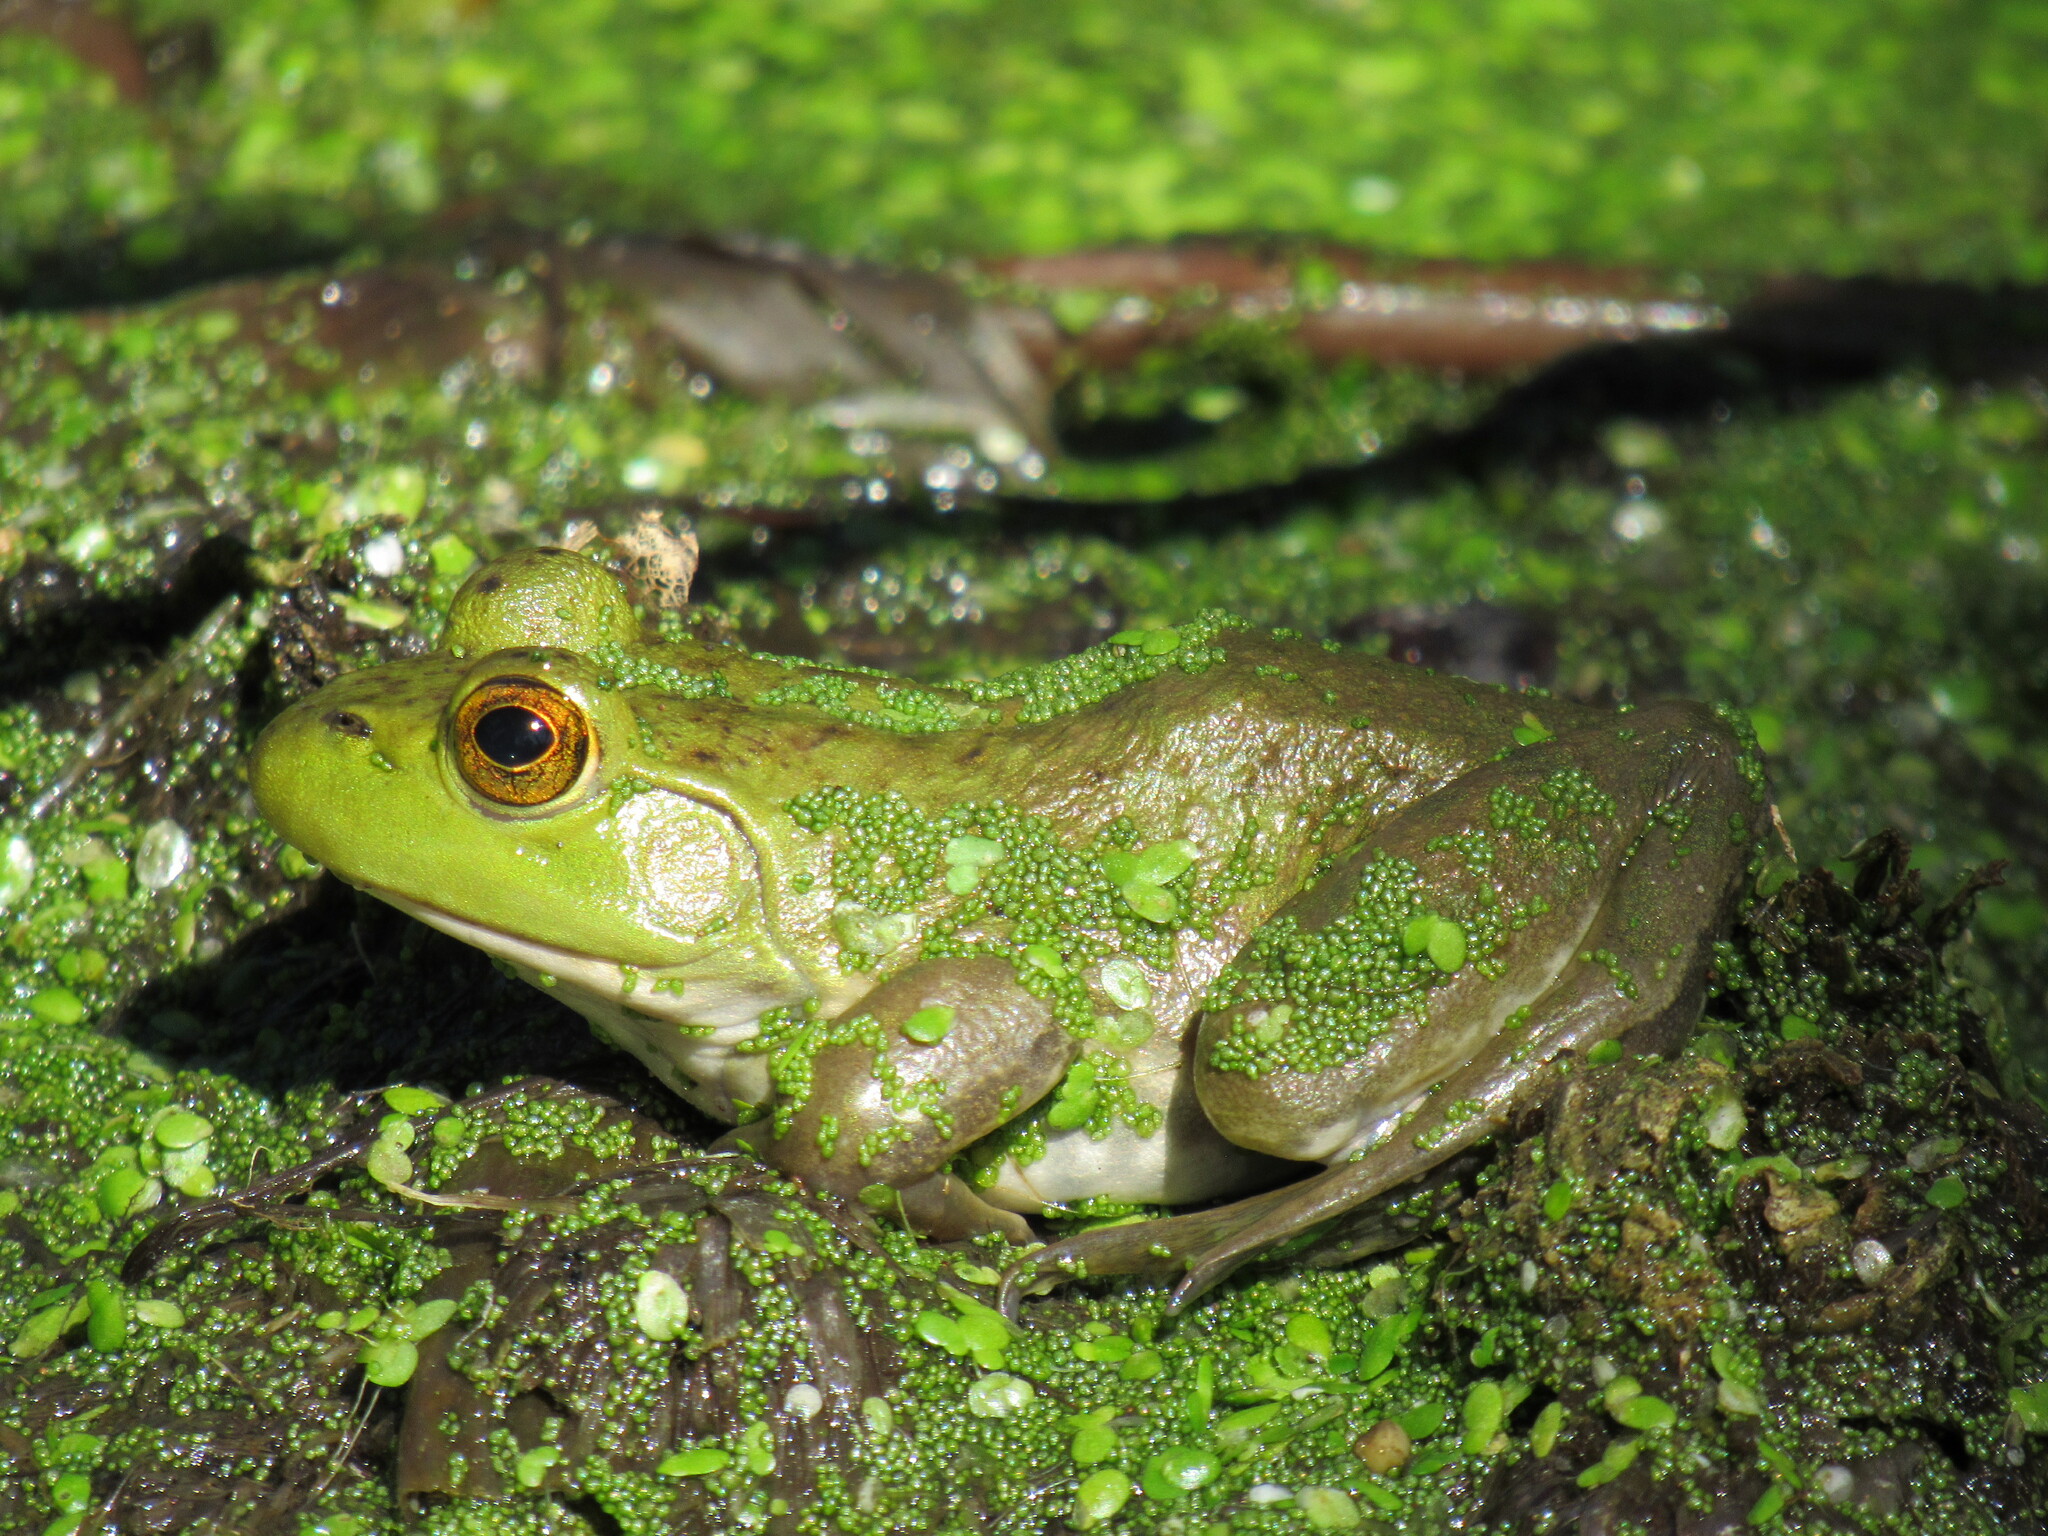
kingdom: Animalia
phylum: Chordata
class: Amphibia
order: Anura
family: Ranidae
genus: Lithobates
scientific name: Lithobates catesbeianus
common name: American bullfrog
